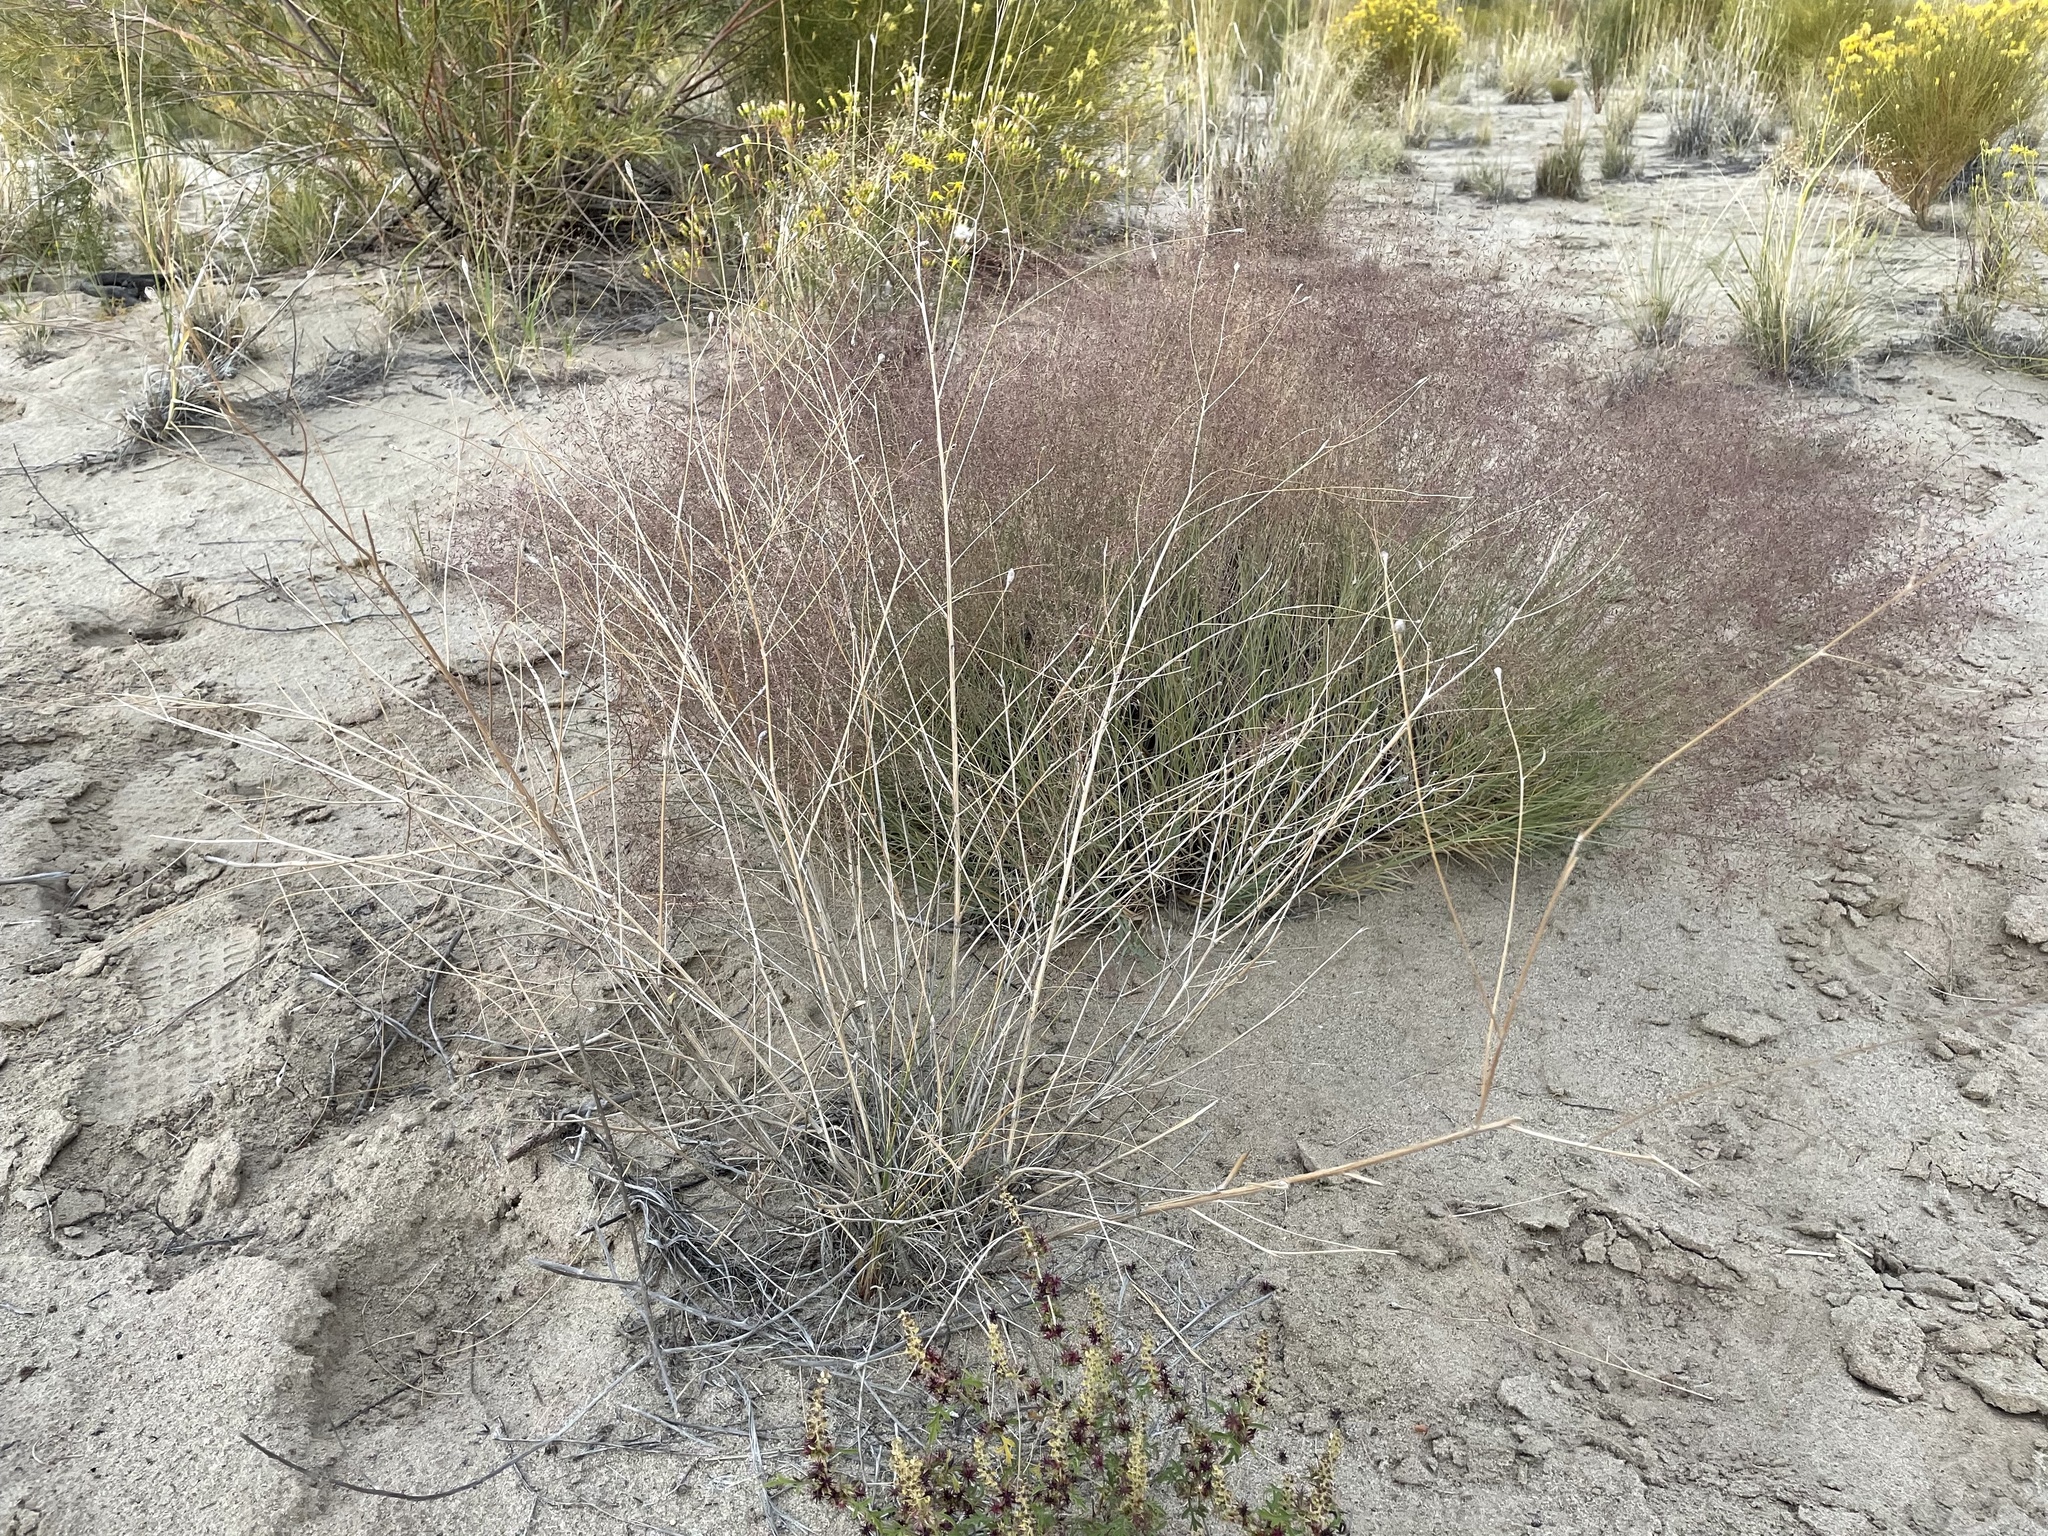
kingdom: Plantae
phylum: Tracheophyta
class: Magnoliopsida
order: Fabales
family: Fabaceae
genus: Parryella
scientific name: Parryella filifolia
